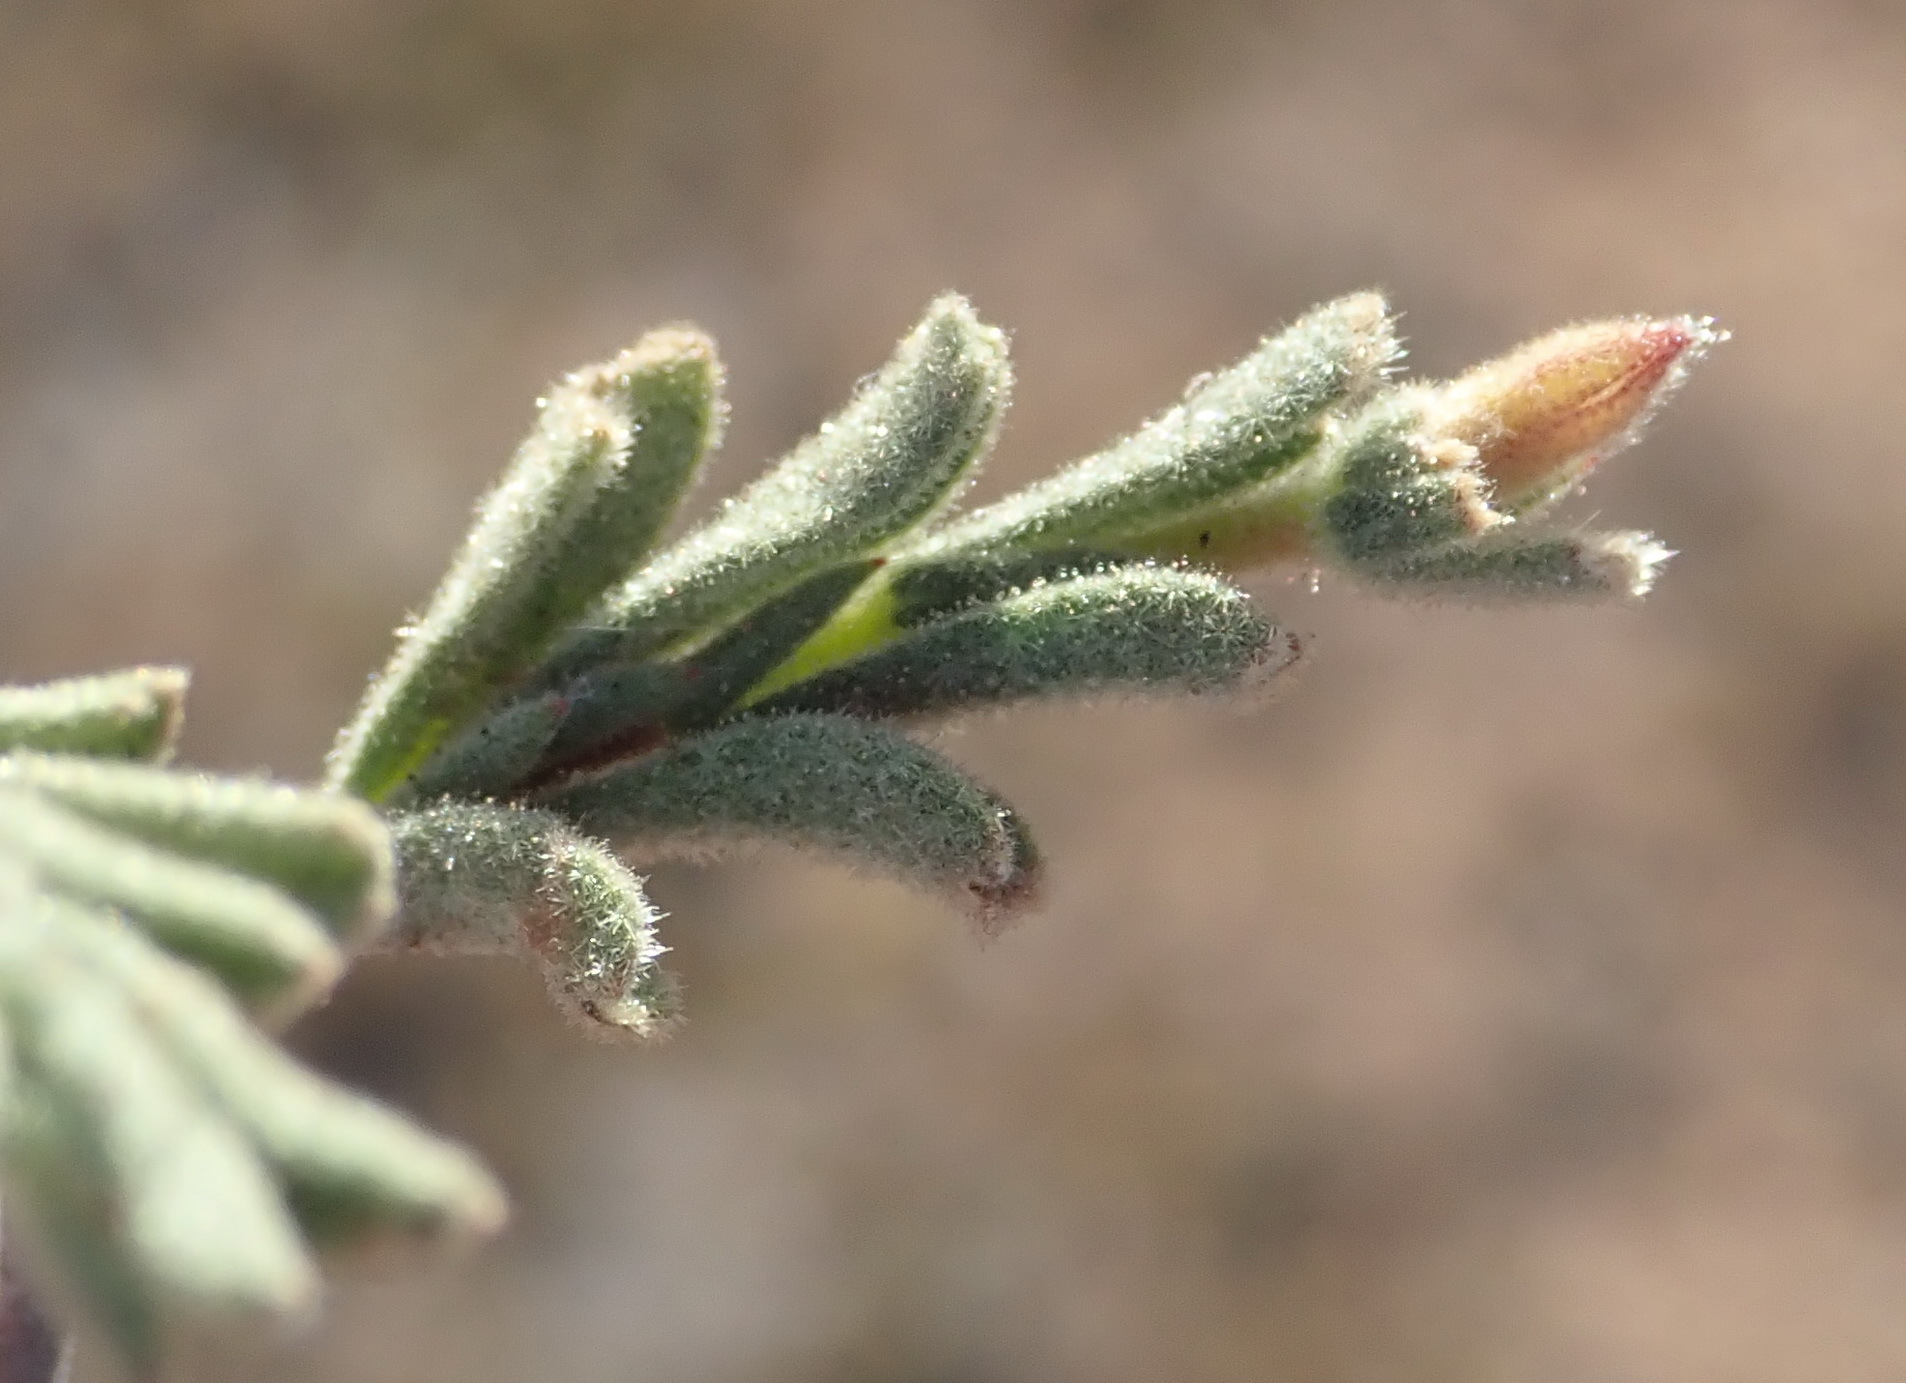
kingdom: Plantae
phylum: Tracheophyta
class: Magnoliopsida
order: Malvales
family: Malvaceae
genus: Hermannia
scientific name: Hermannia flammula
